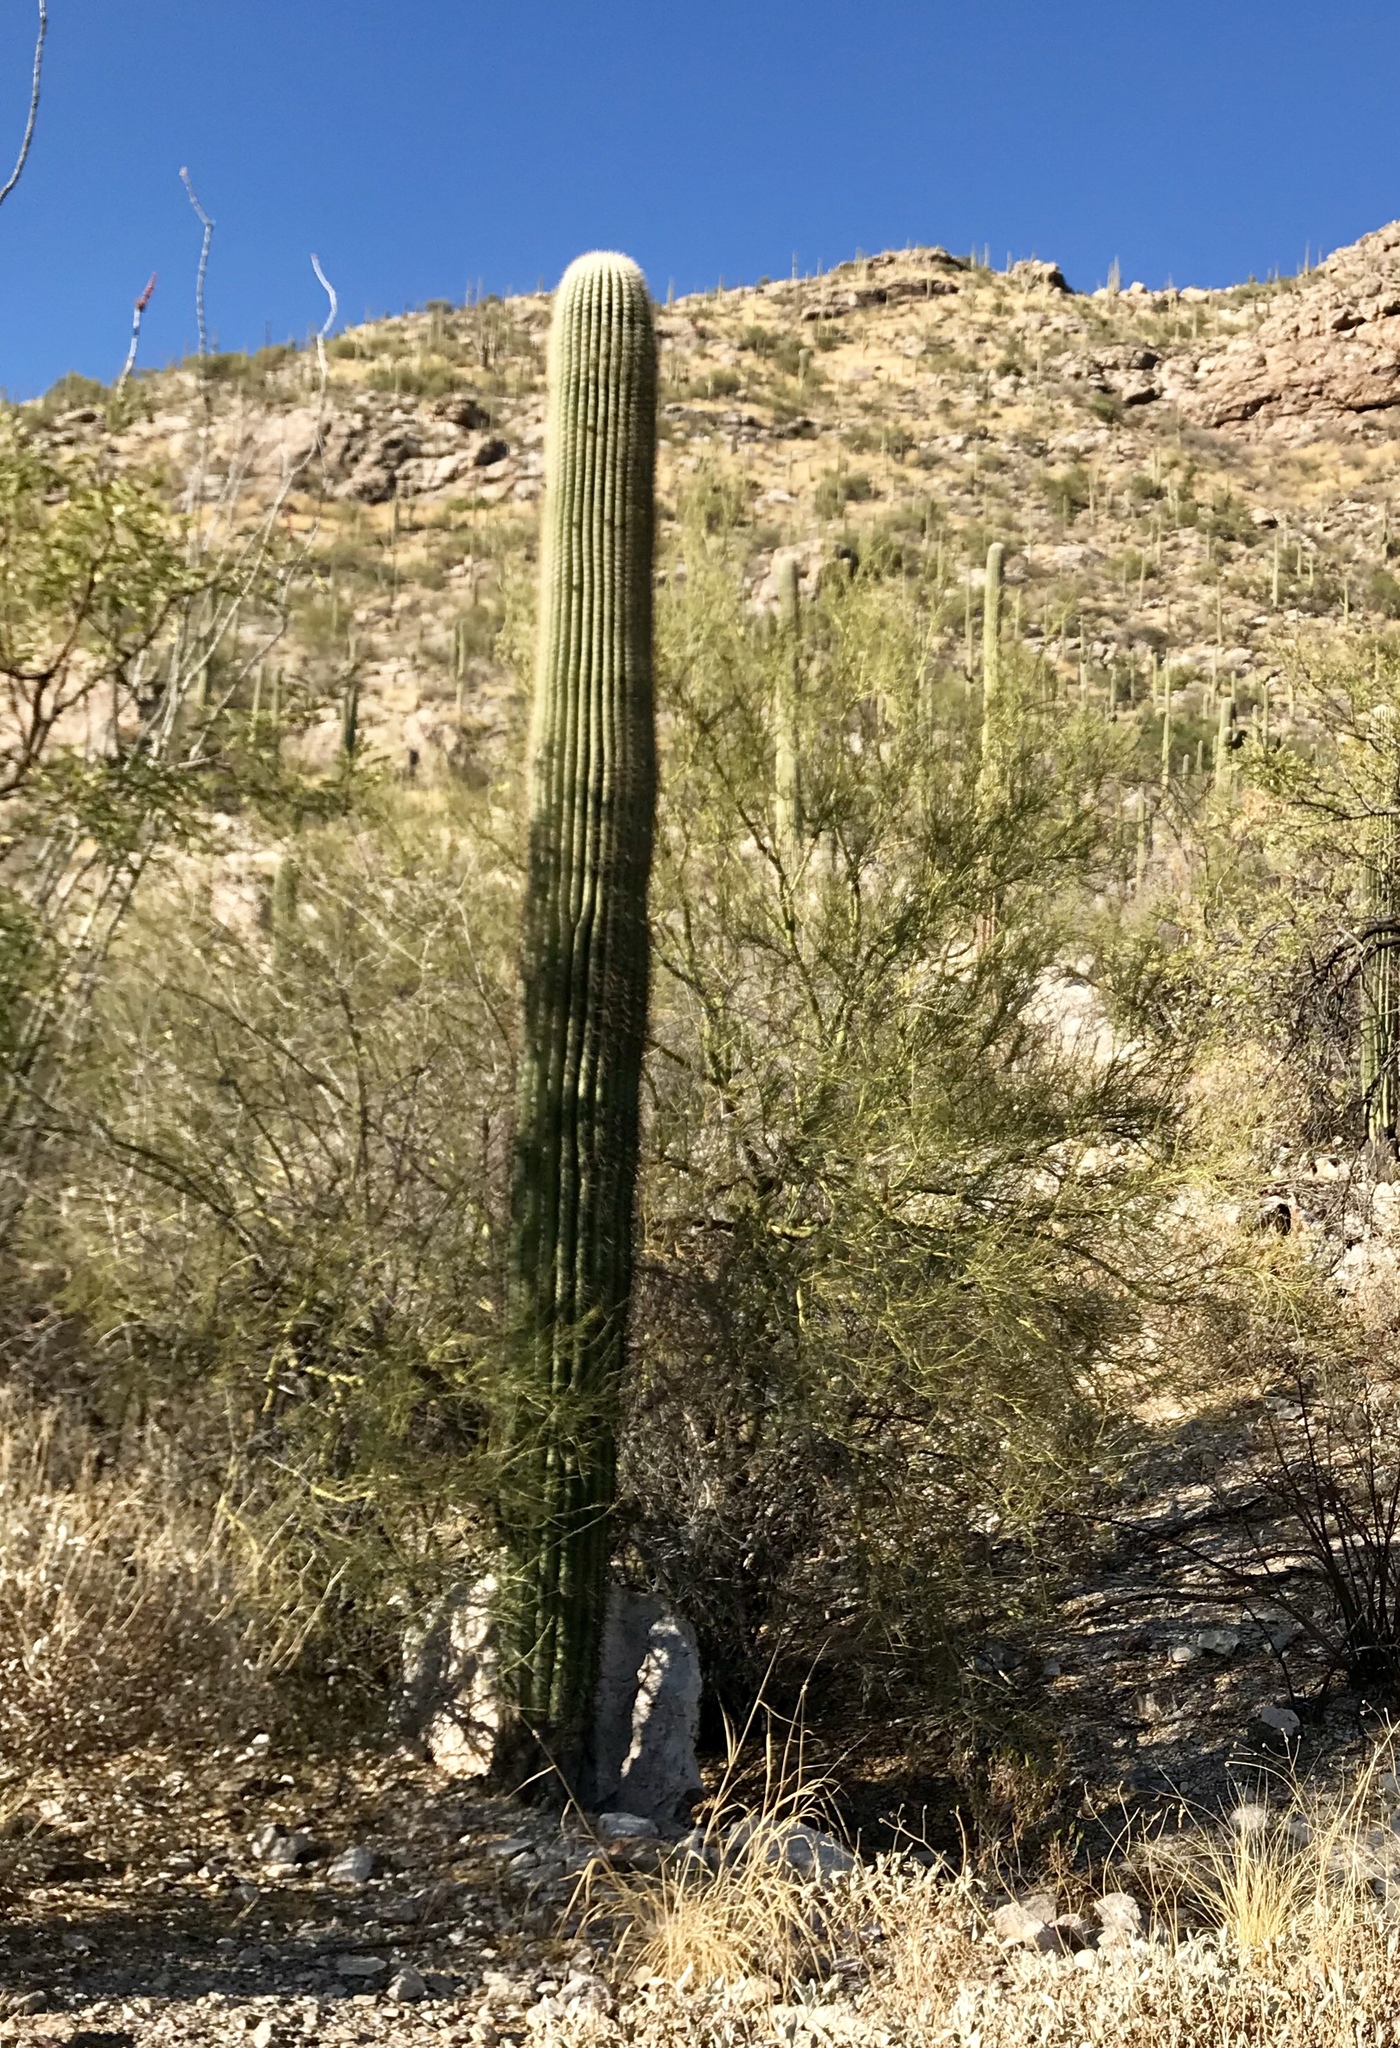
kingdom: Plantae
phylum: Tracheophyta
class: Magnoliopsida
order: Caryophyllales
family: Cactaceae
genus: Carnegiea
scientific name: Carnegiea gigantea
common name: Saguaro
